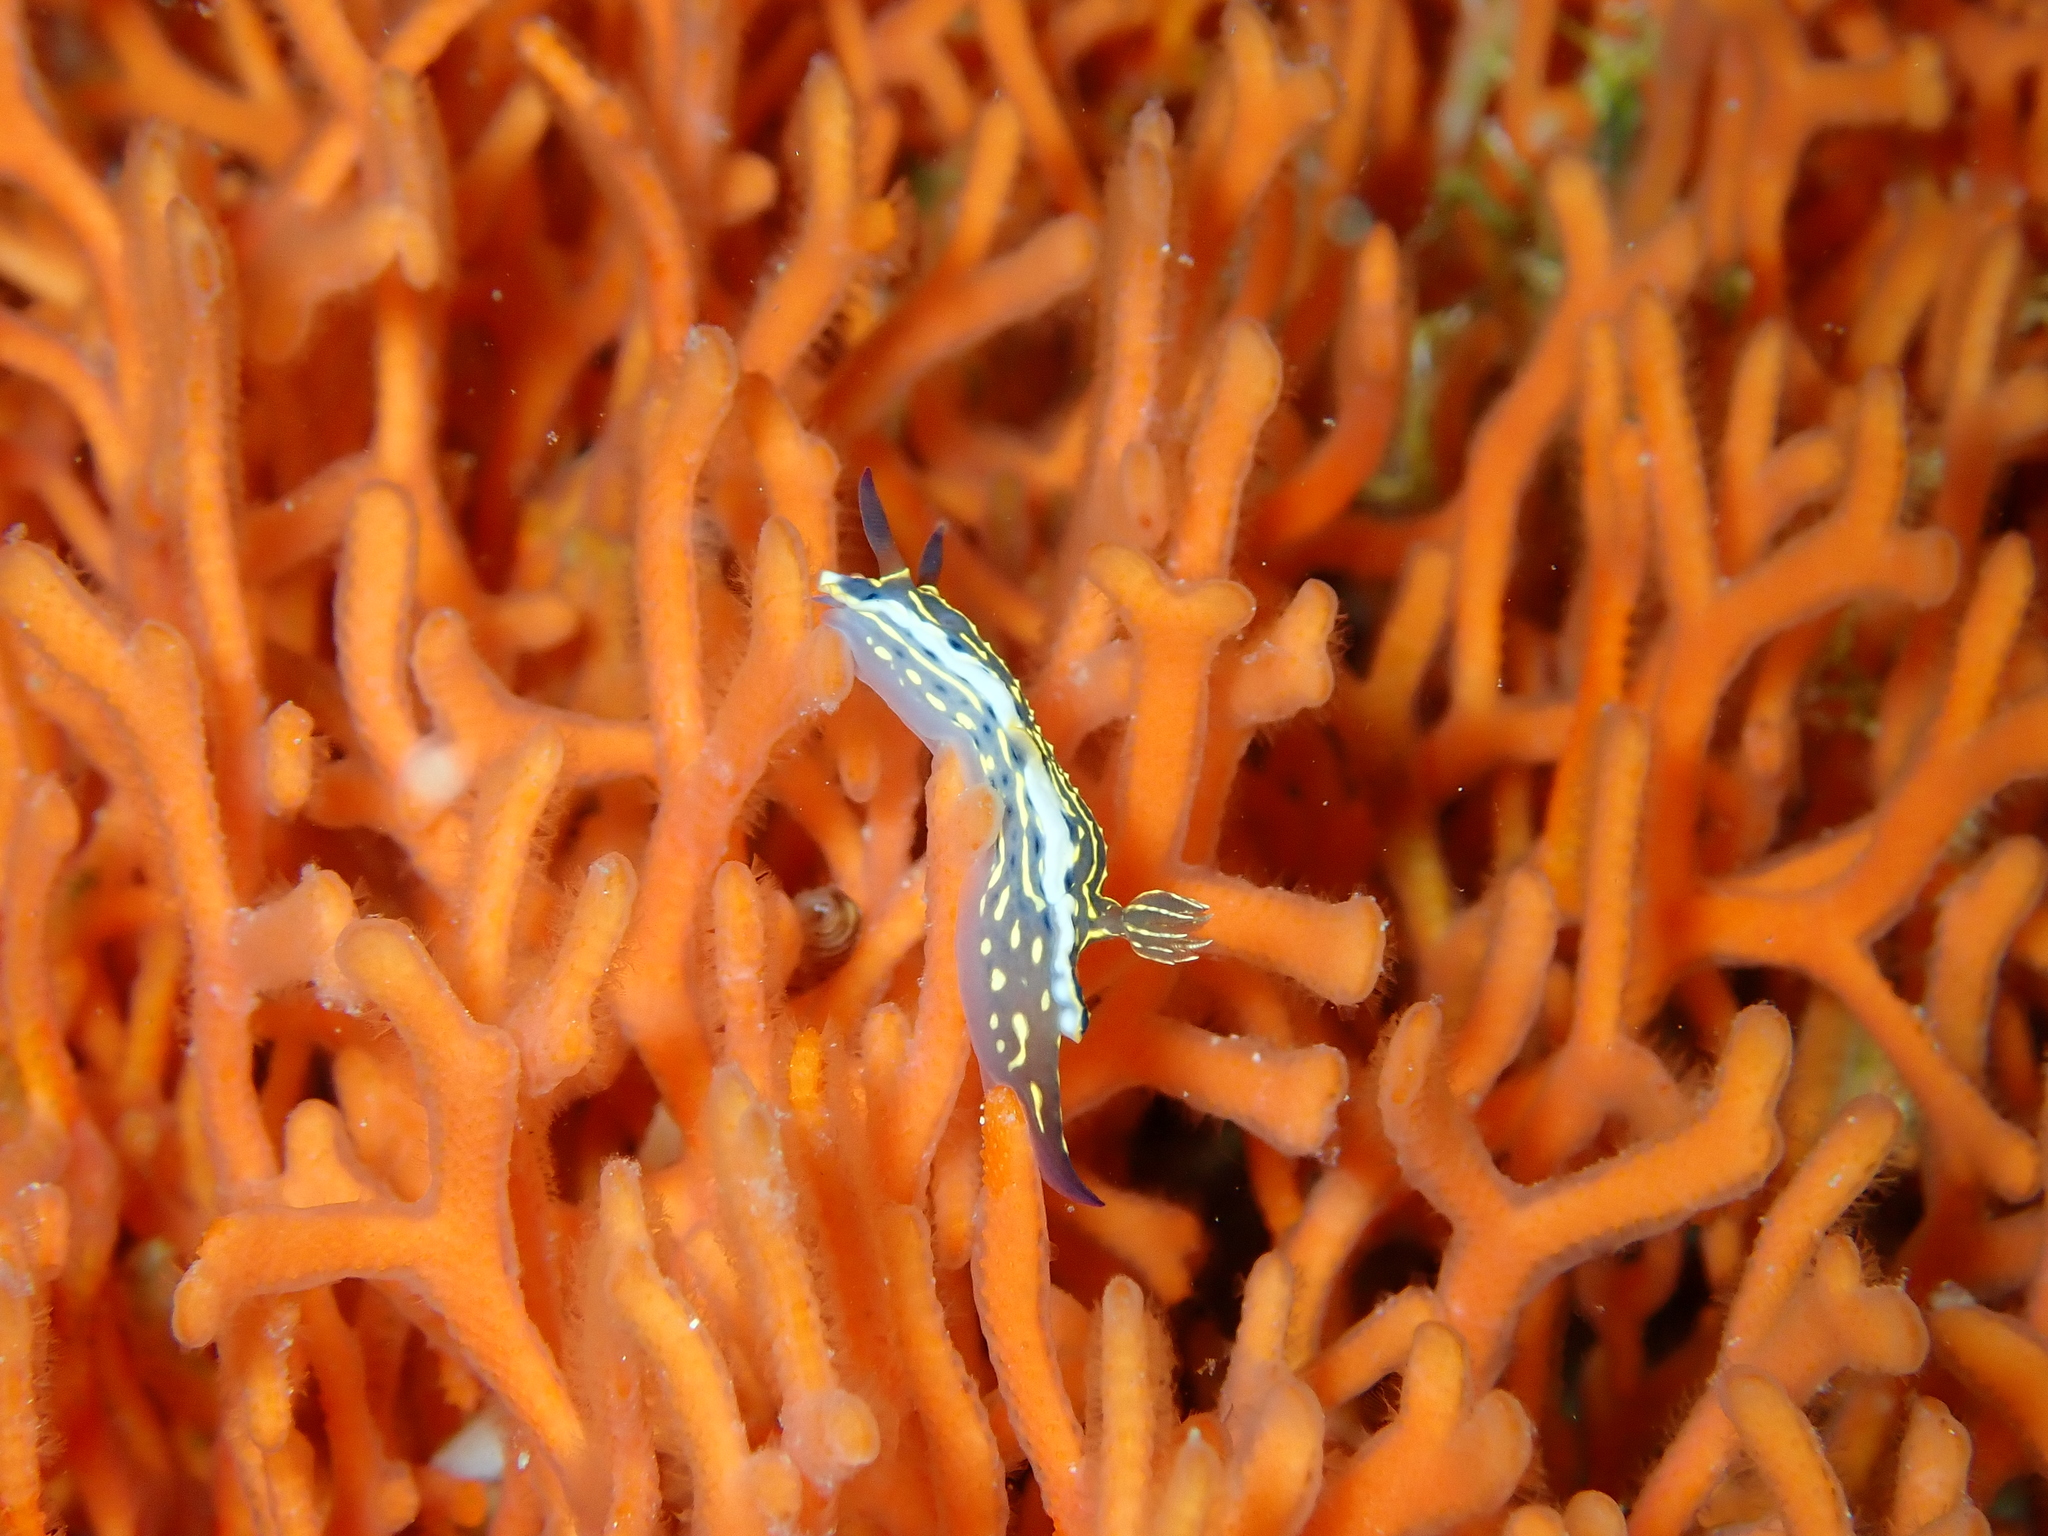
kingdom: Animalia
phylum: Mollusca
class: Gastropoda
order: Nudibranchia
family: Chromodorididae
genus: Felimare
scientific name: Felimare picta
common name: Giant doris
